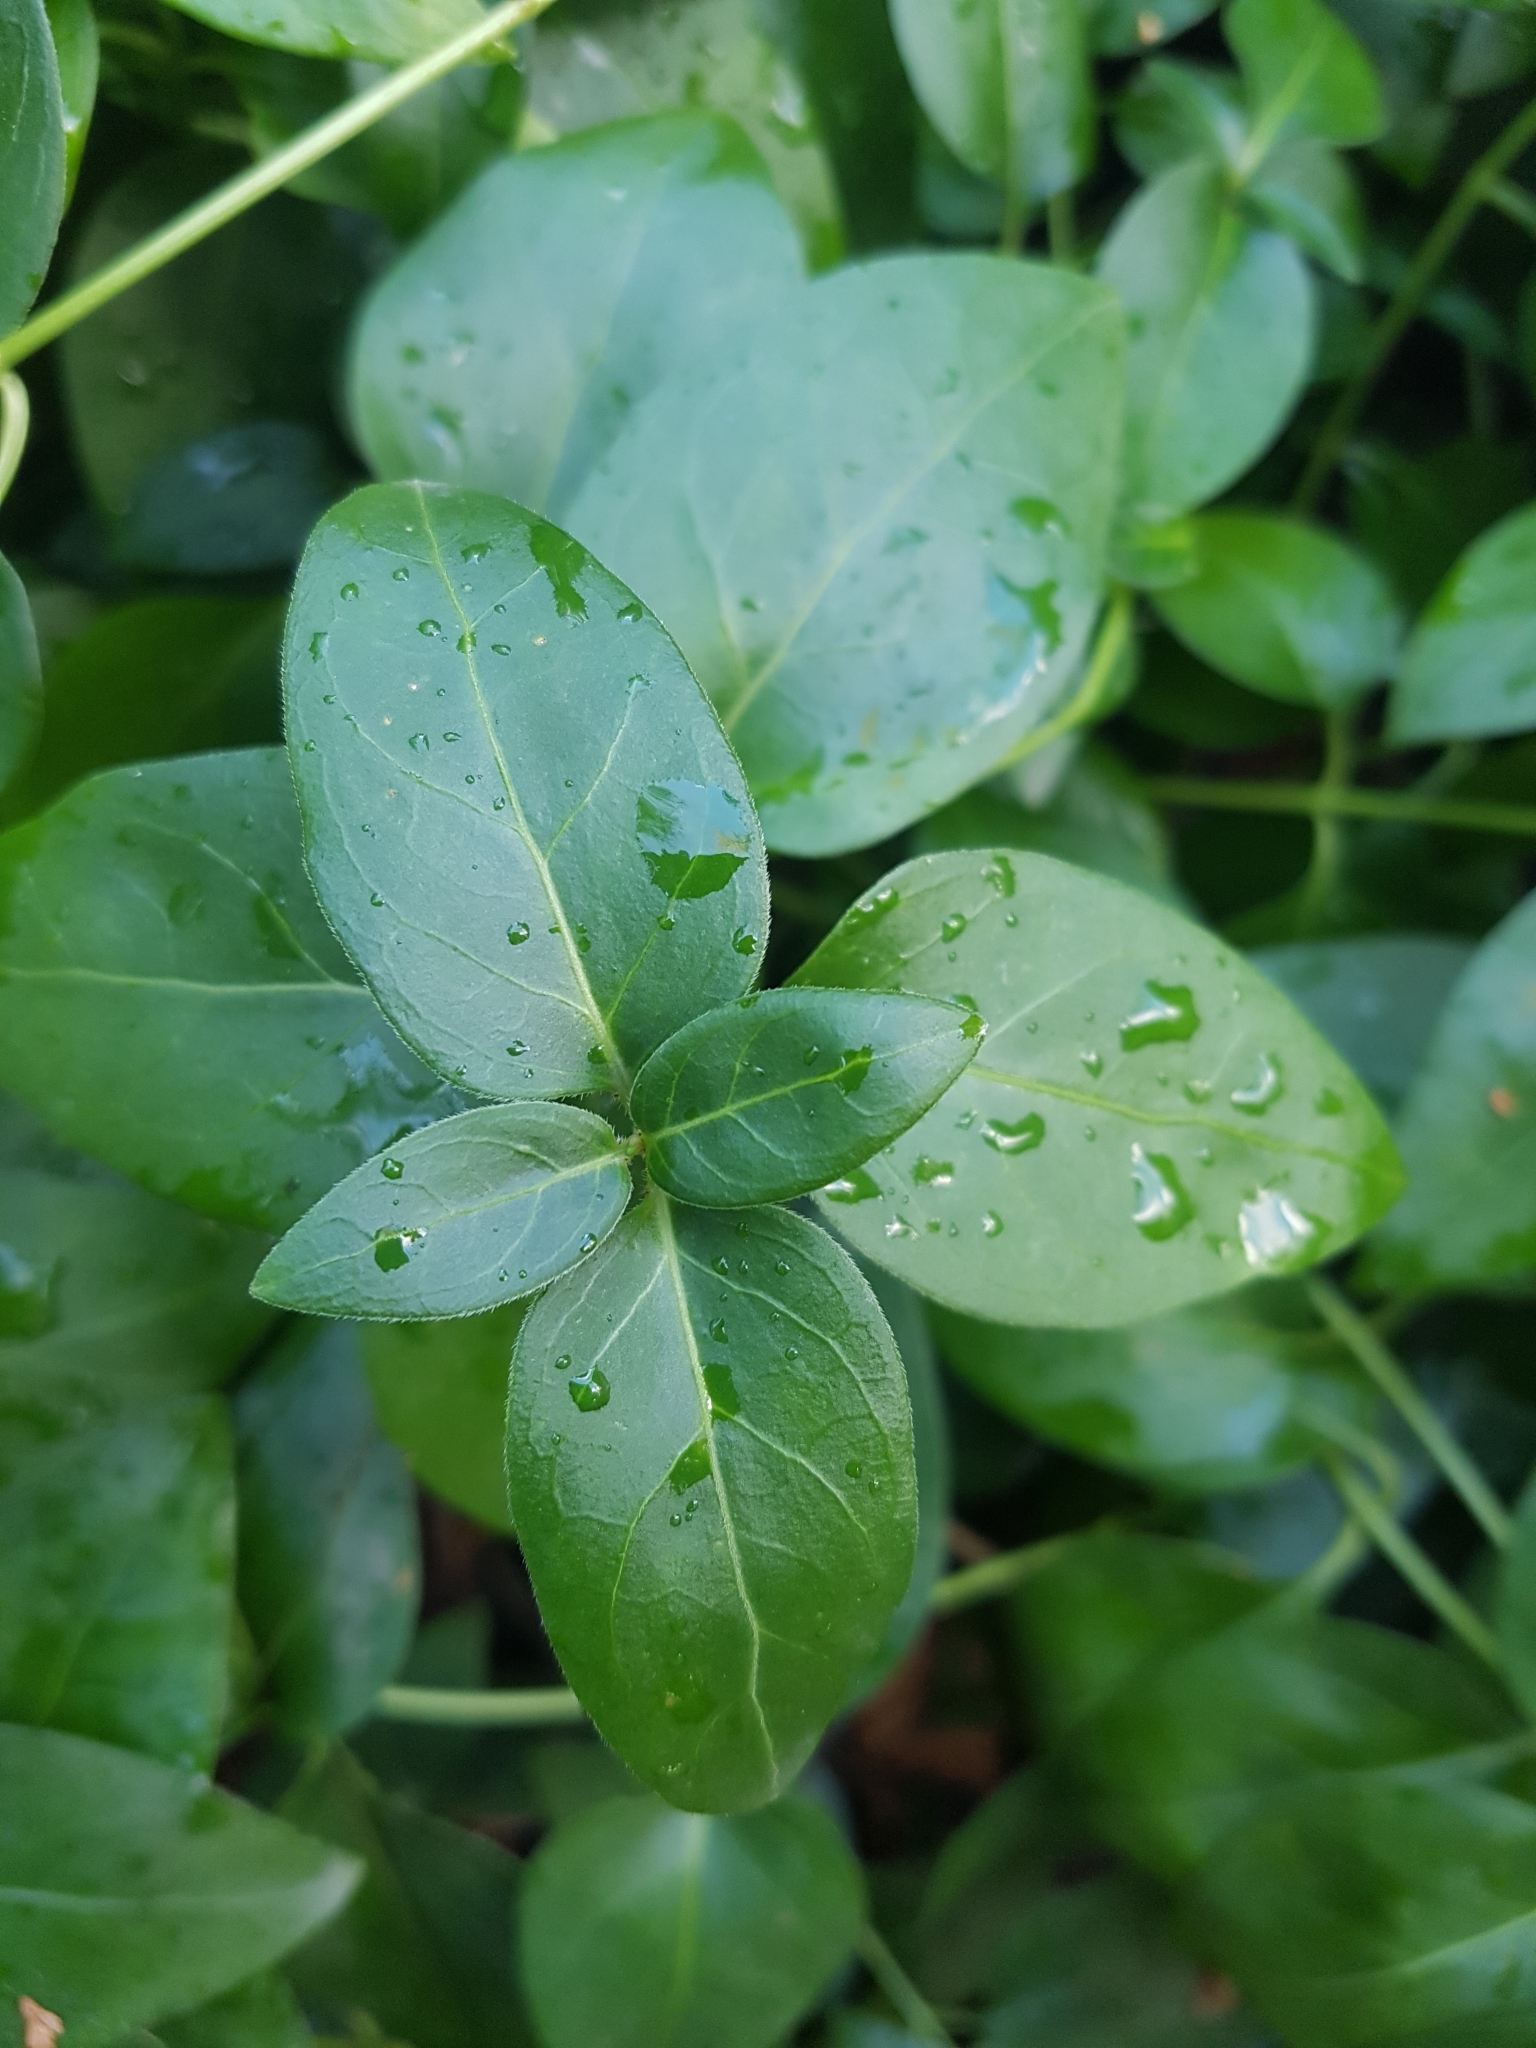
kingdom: Plantae
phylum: Tracheophyta
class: Magnoliopsida
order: Gentianales
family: Apocynaceae
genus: Vinca
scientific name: Vinca major
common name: Greater periwinkle
